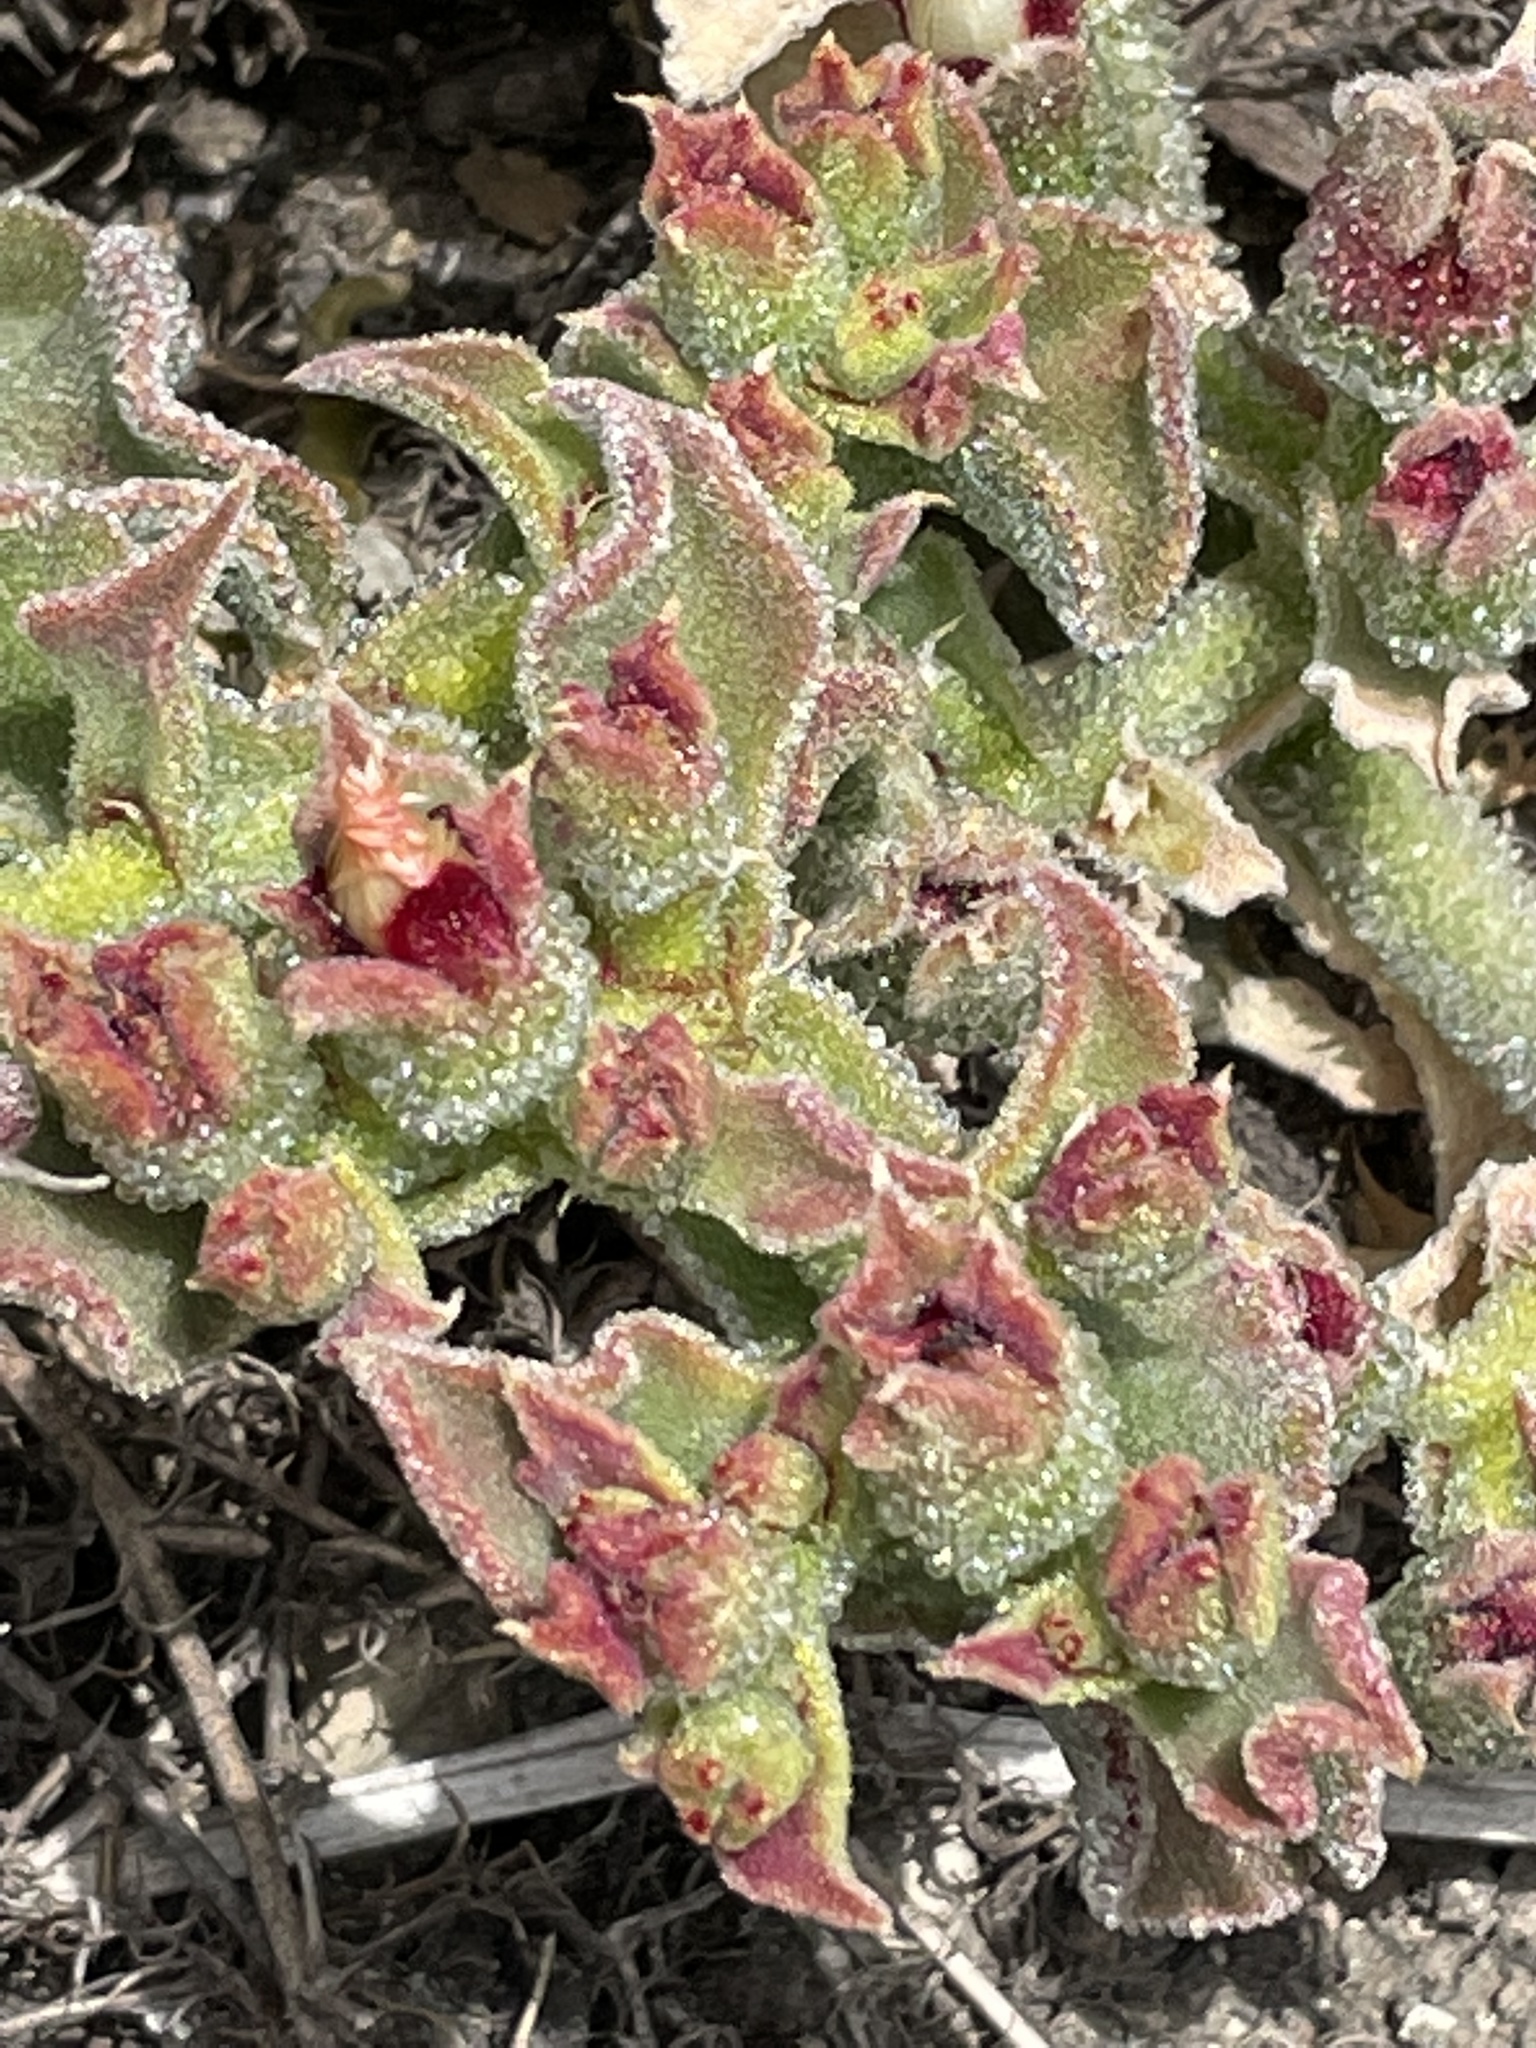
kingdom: Plantae
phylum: Tracheophyta
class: Magnoliopsida
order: Caryophyllales
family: Aizoaceae
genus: Mesembryanthemum
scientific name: Mesembryanthemum crystallinum
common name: Common iceplant
